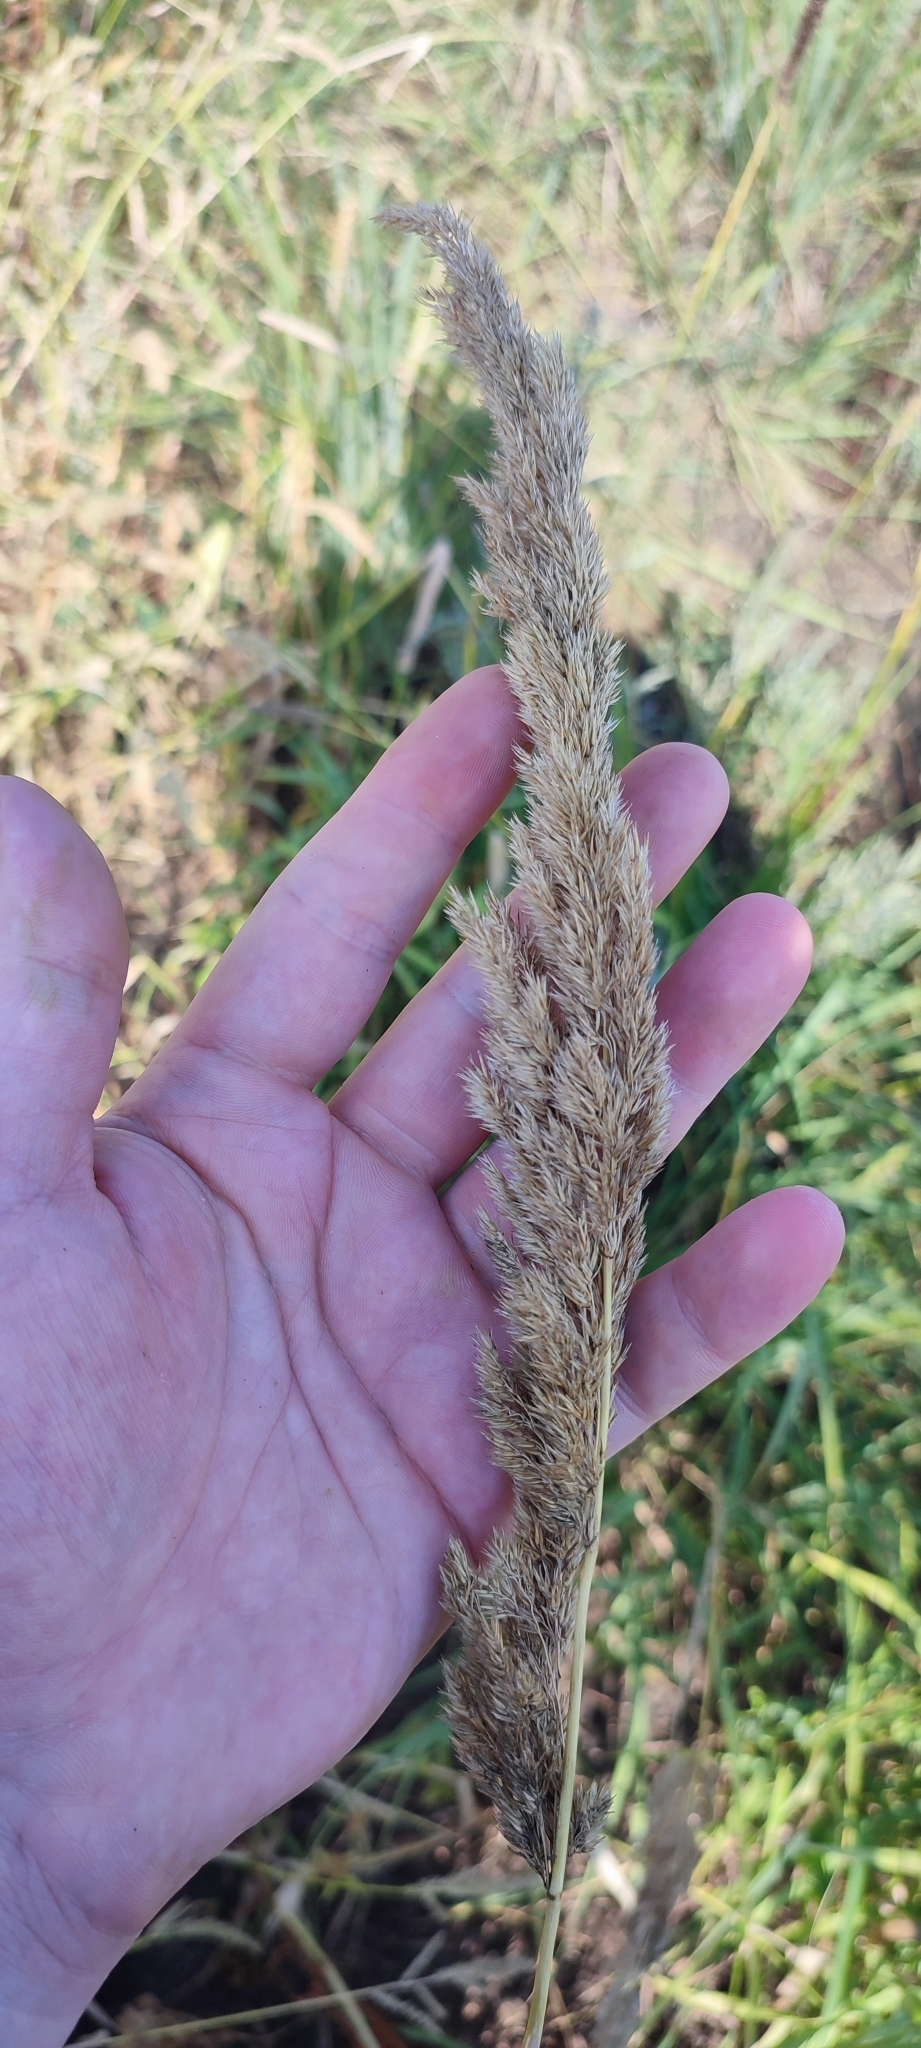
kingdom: Plantae
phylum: Tracheophyta
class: Liliopsida
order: Poales
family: Poaceae
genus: Calamagrostis
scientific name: Calamagrostis epigejos
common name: Wood small-reed
